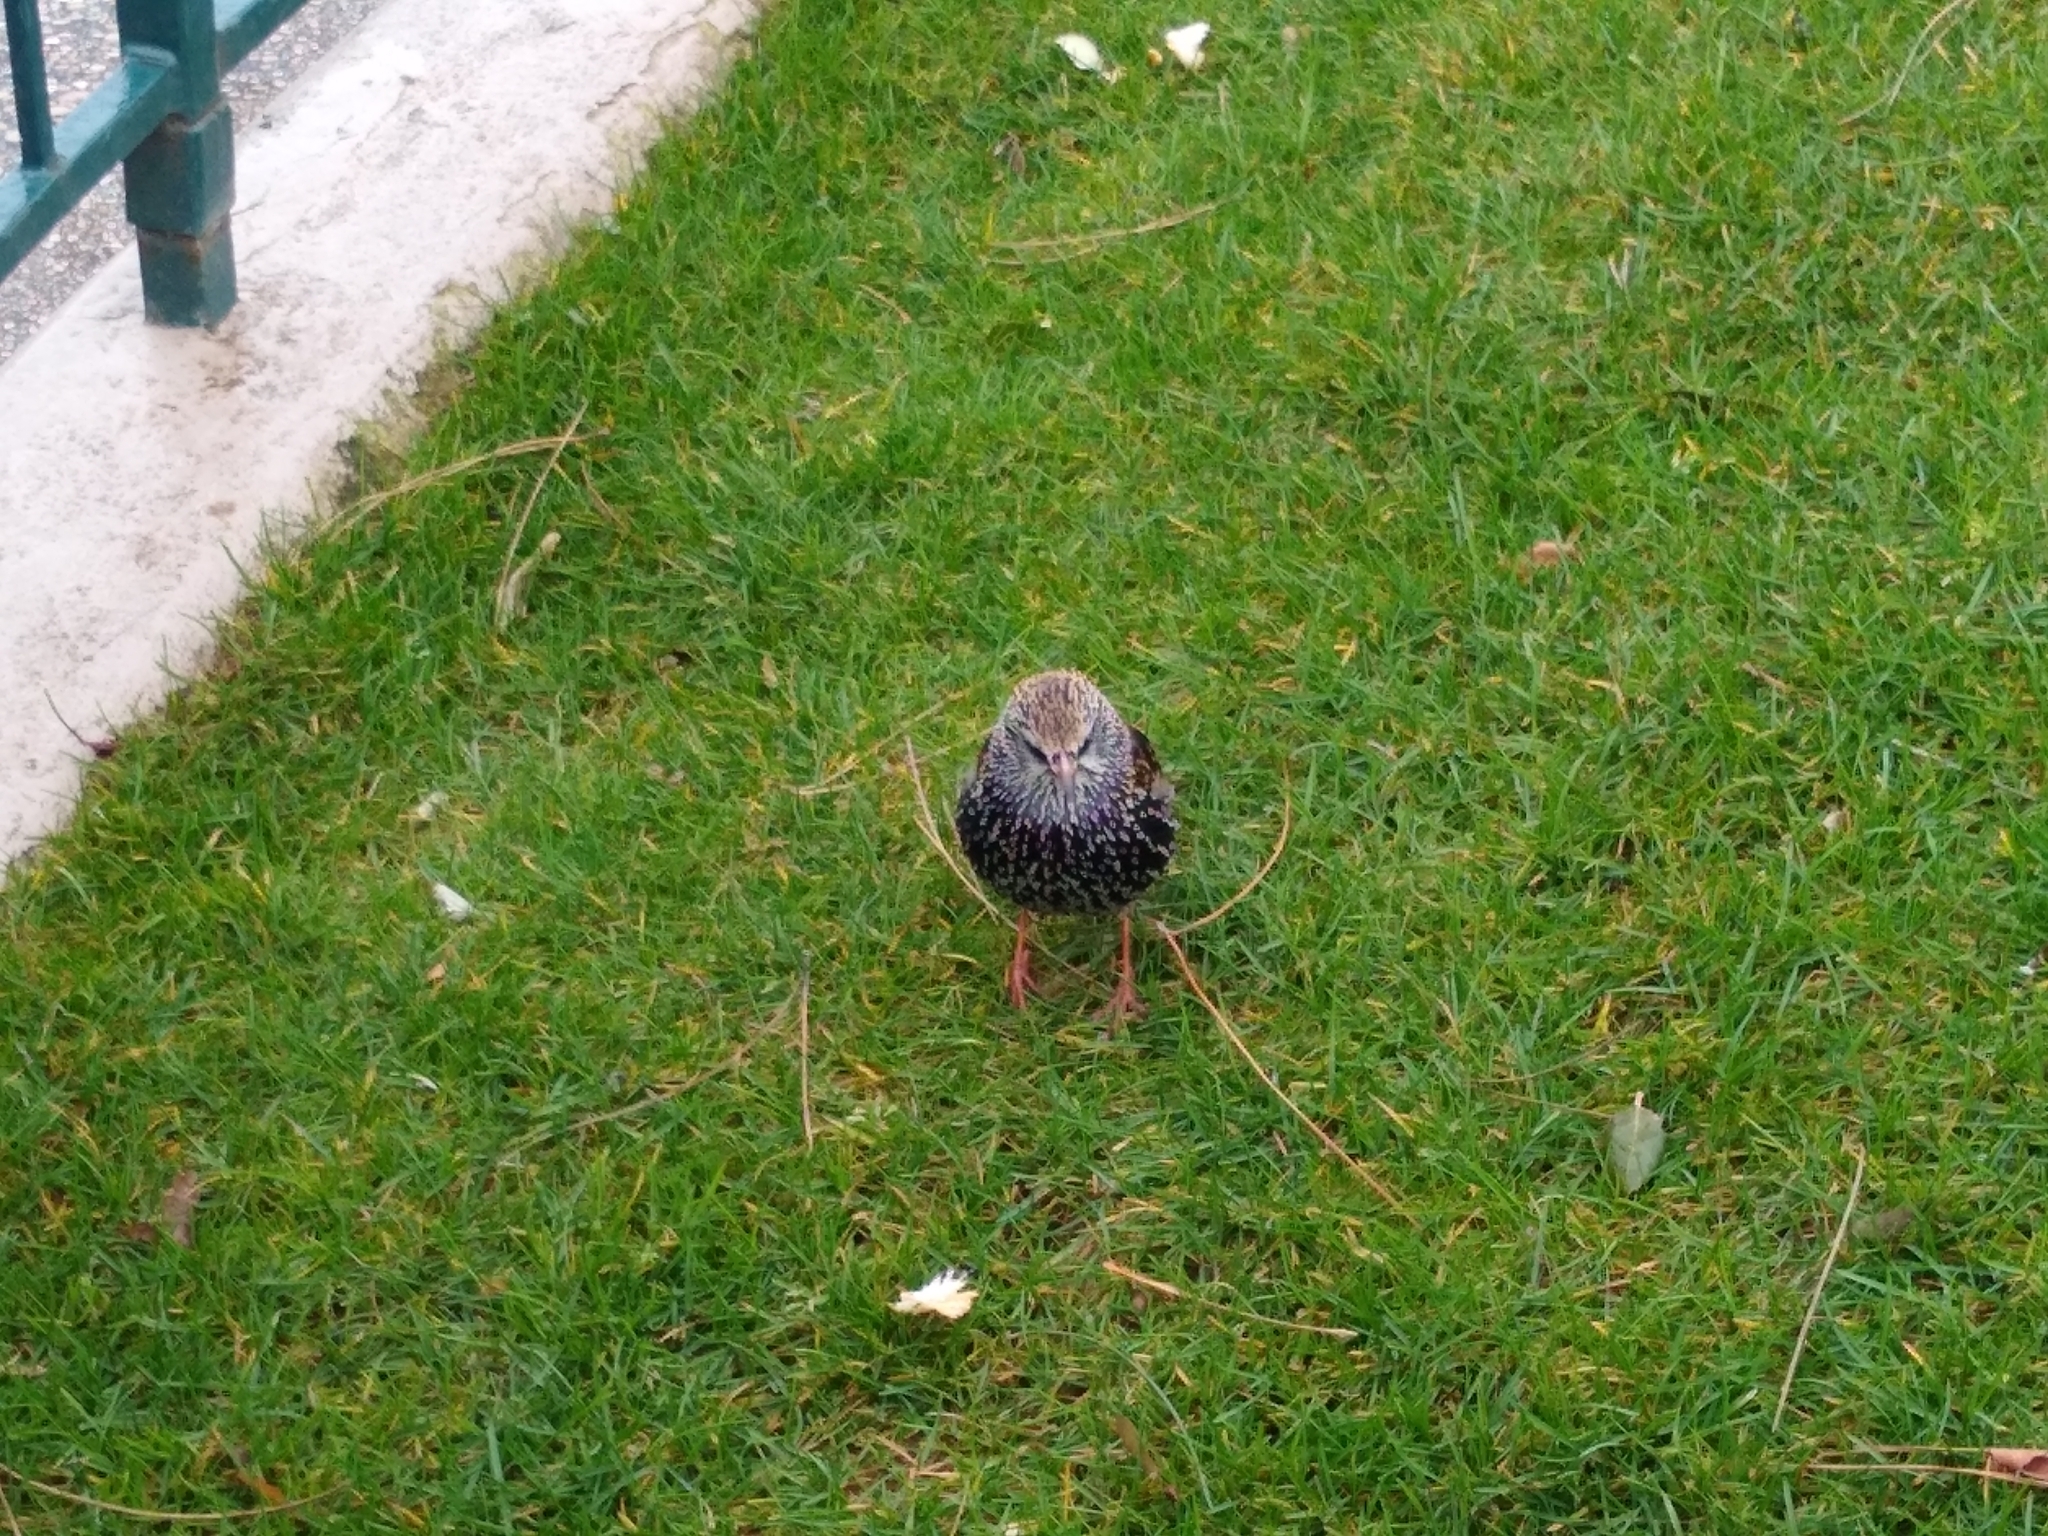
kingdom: Animalia
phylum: Chordata
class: Aves
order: Passeriformes
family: Sturnidae
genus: Sturnus
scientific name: Sturnus vulgaris
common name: Common starling
